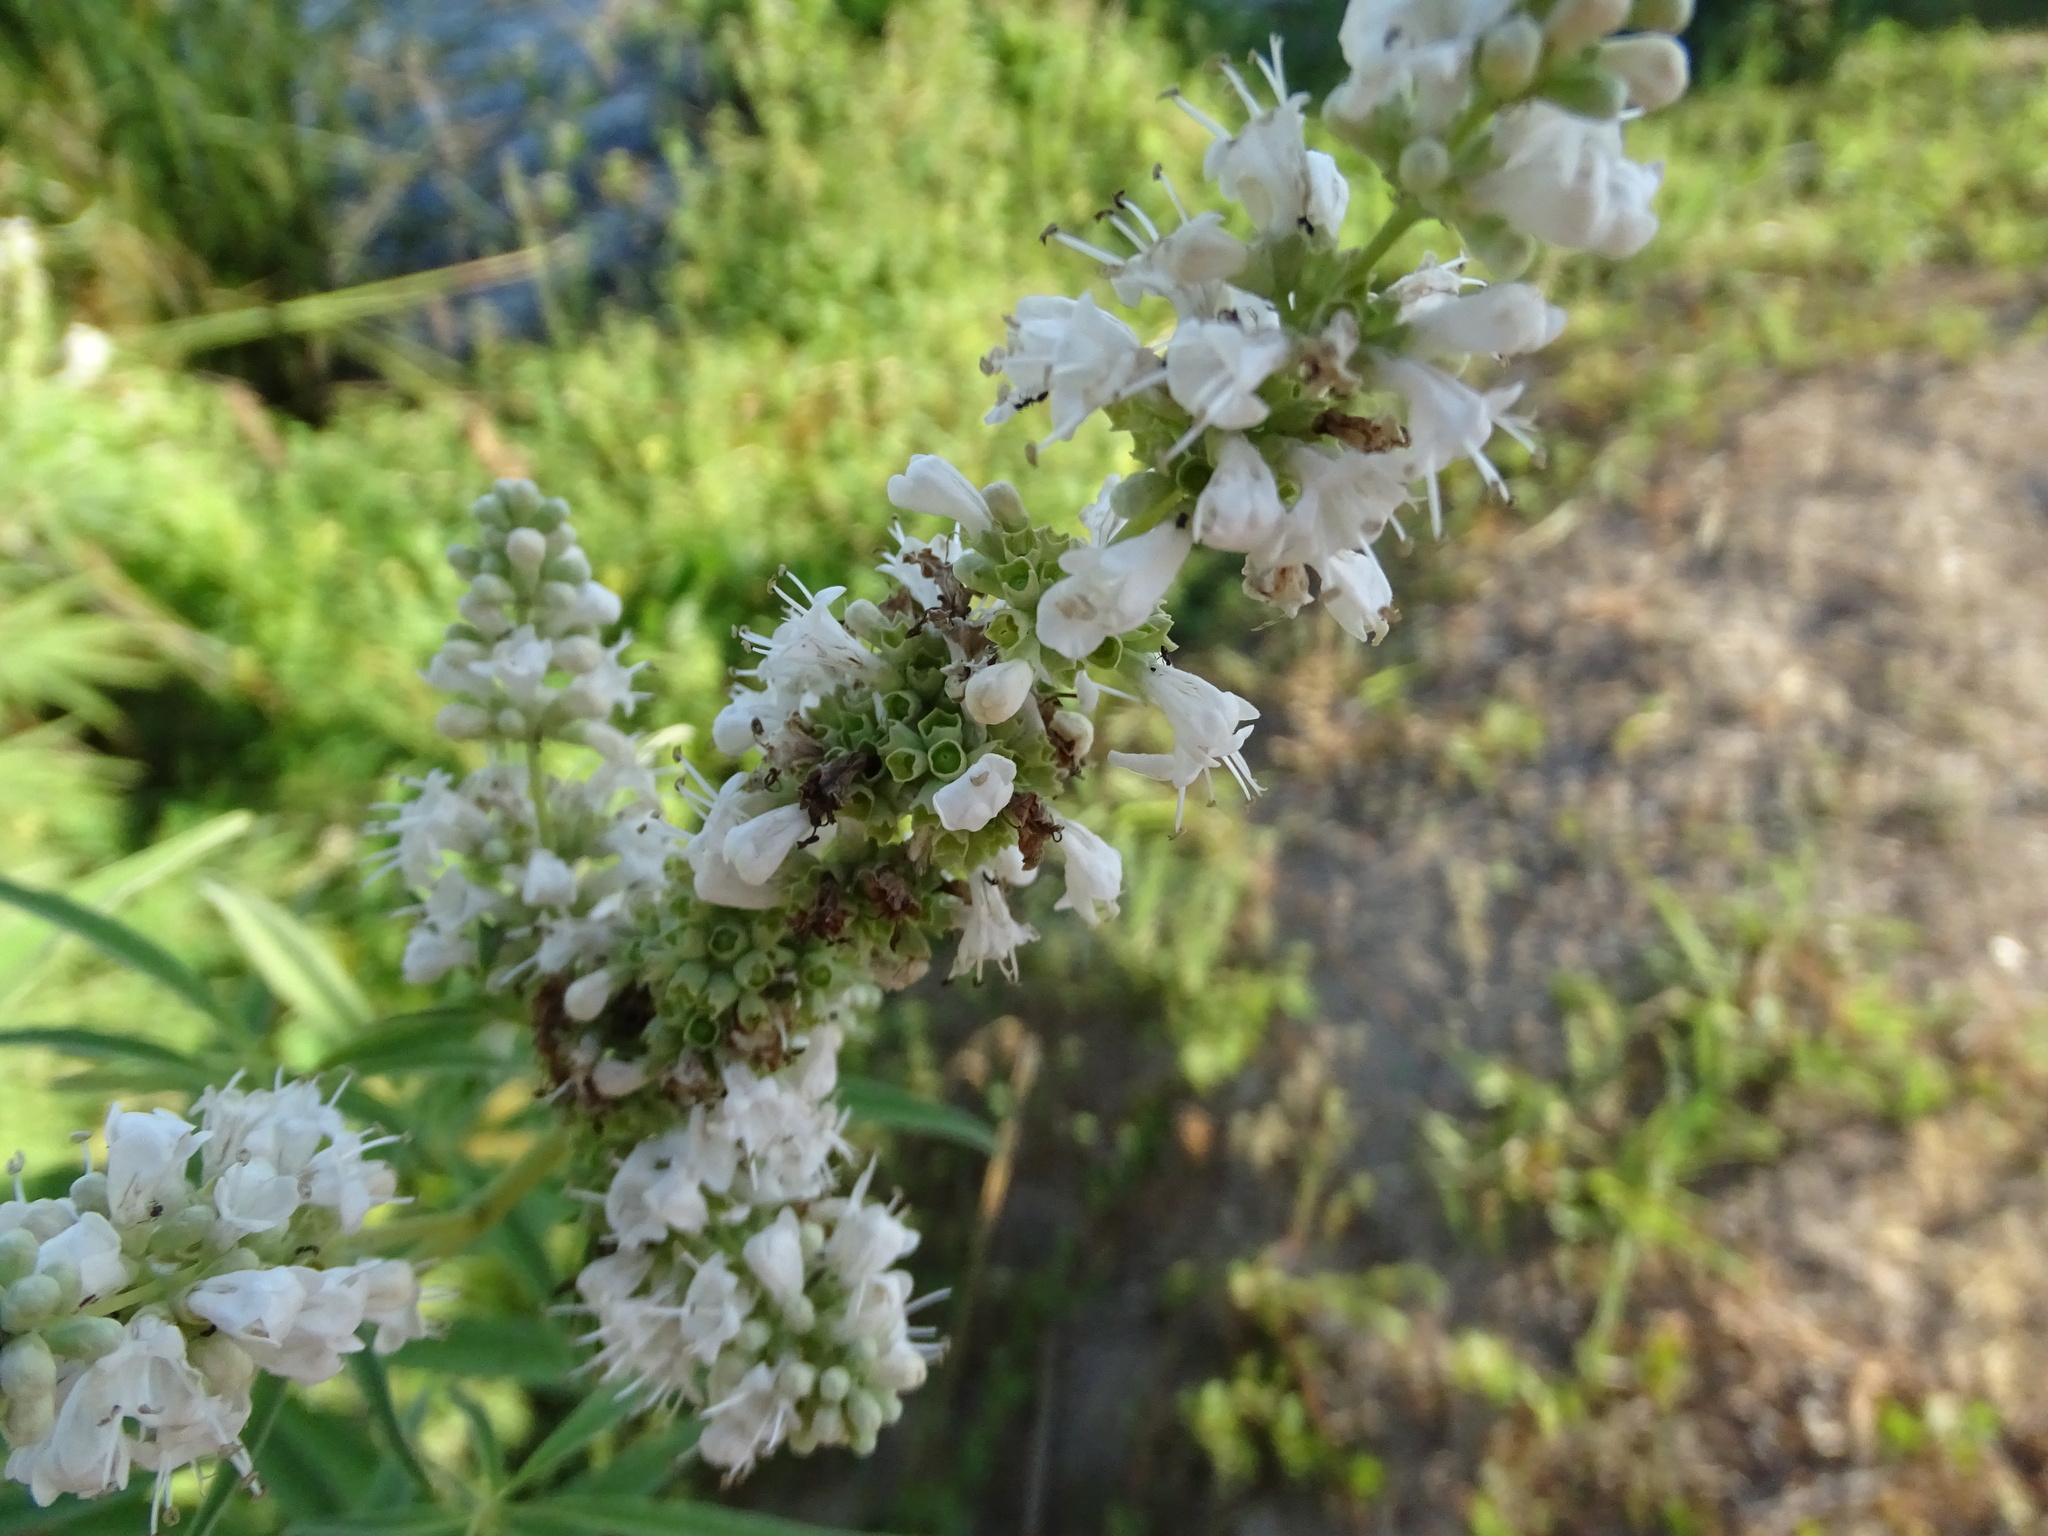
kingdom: Plantae
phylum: Tracheophyta
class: Magnoliopsida
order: Lamiales
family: Lamiaceae
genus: Vitex
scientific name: Vitex agnus-castus
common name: Chasteberry
